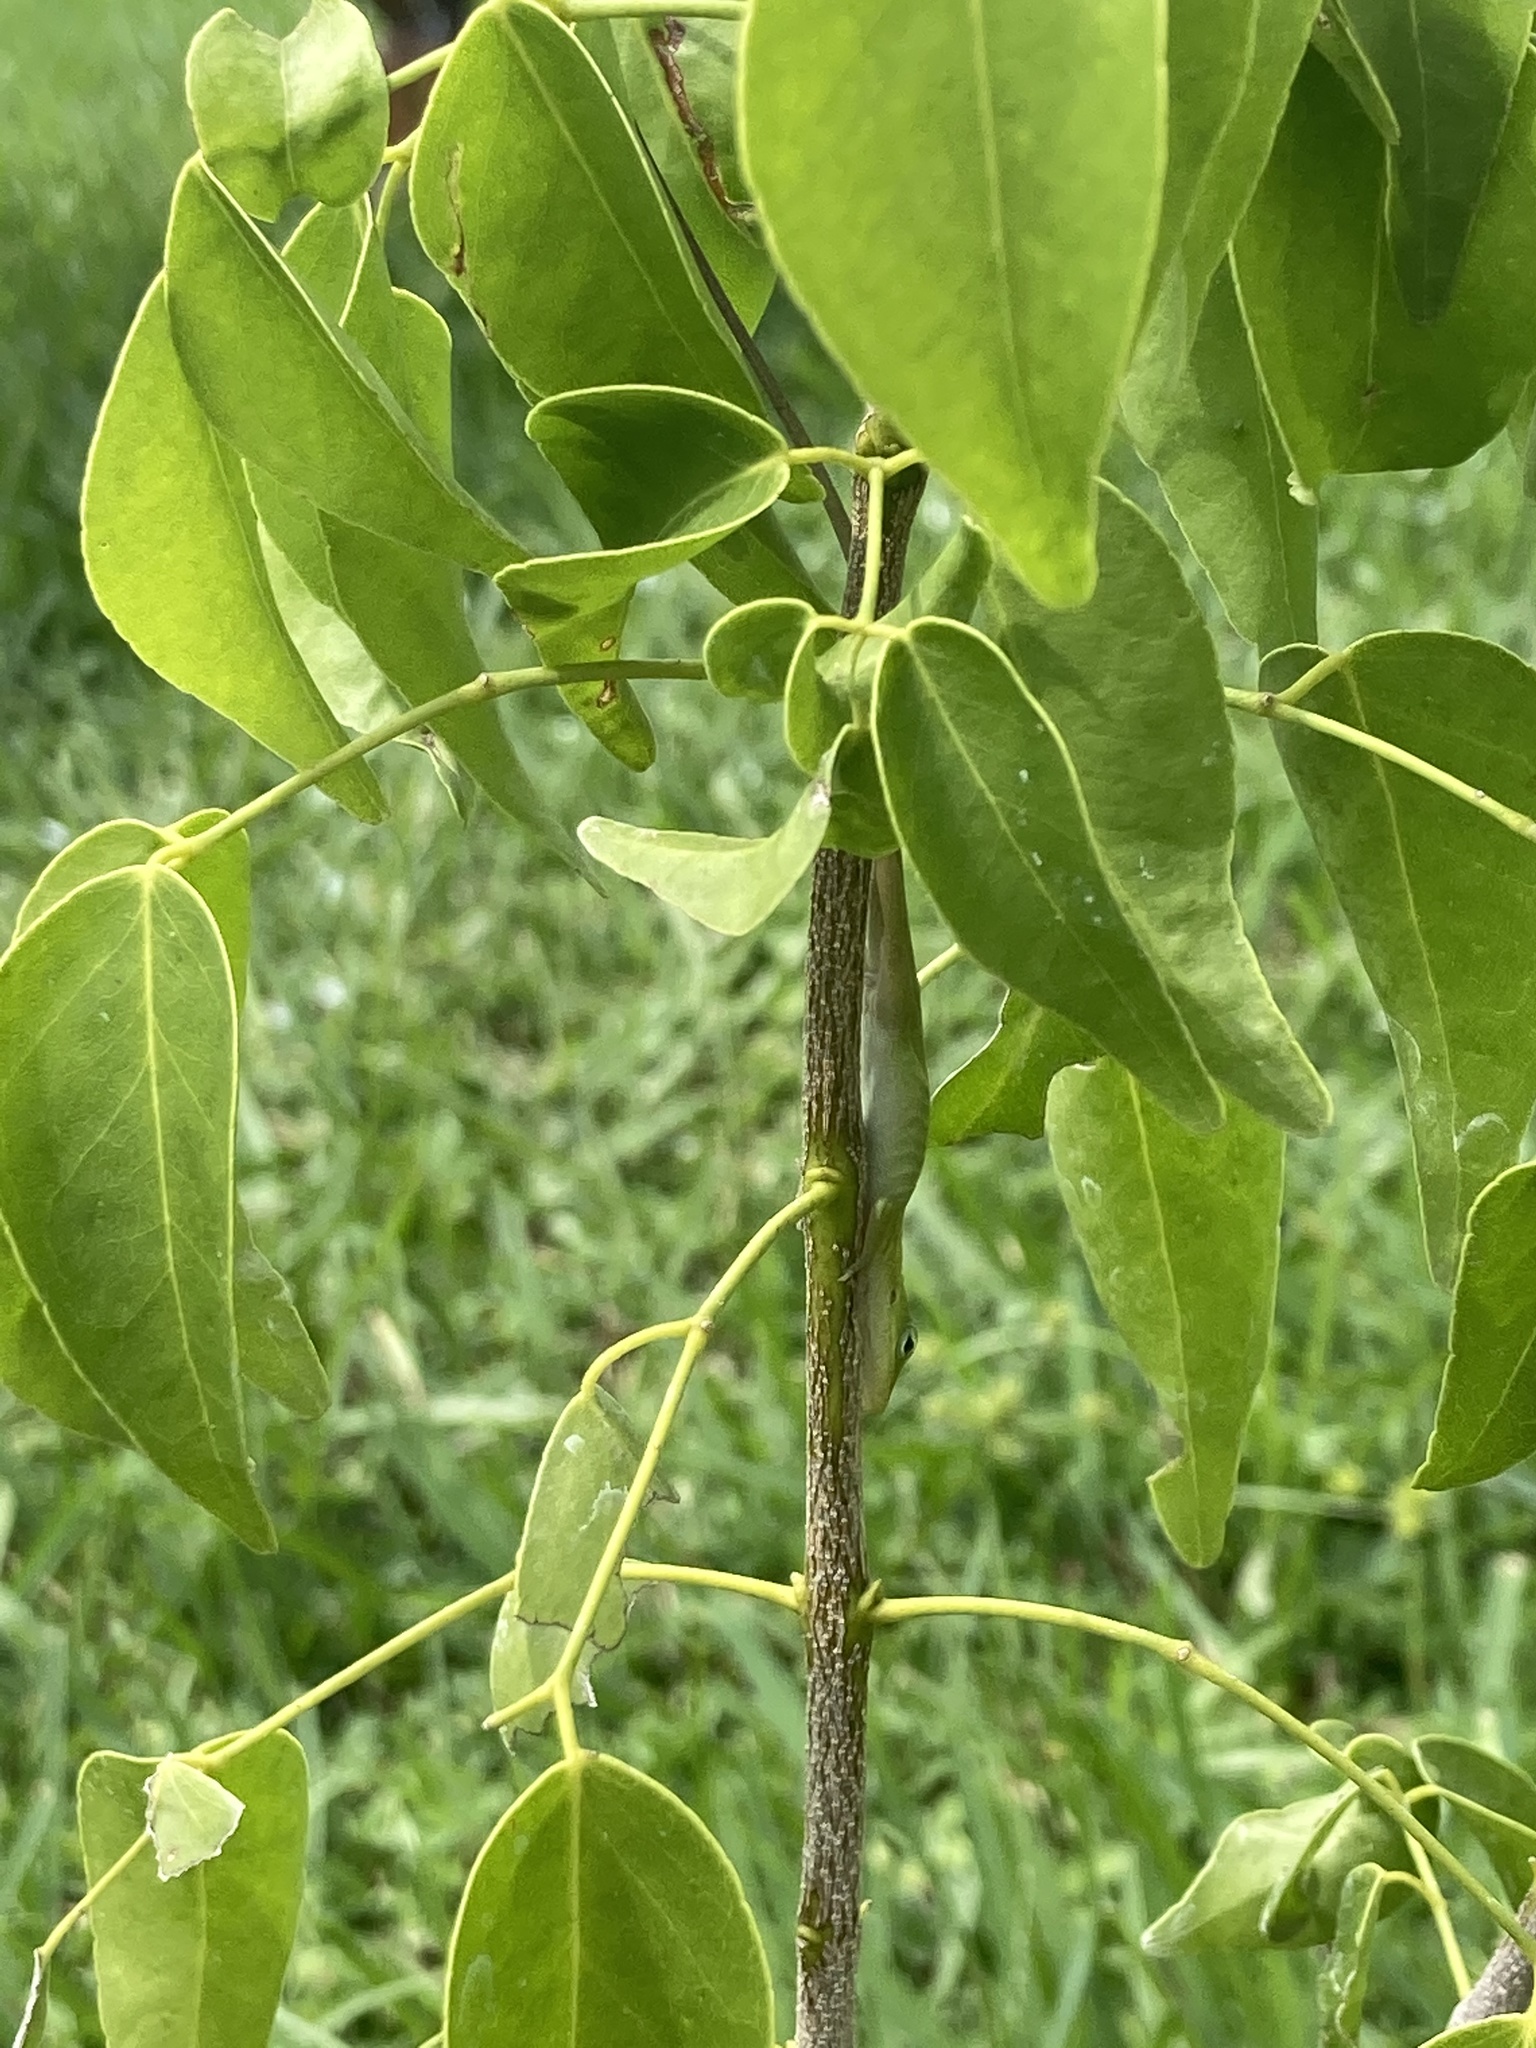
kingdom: Animalia
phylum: Chordata
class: Squamata
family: Dactyloidae
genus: Anolis
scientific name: Anolis carolinensis
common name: Green anole
